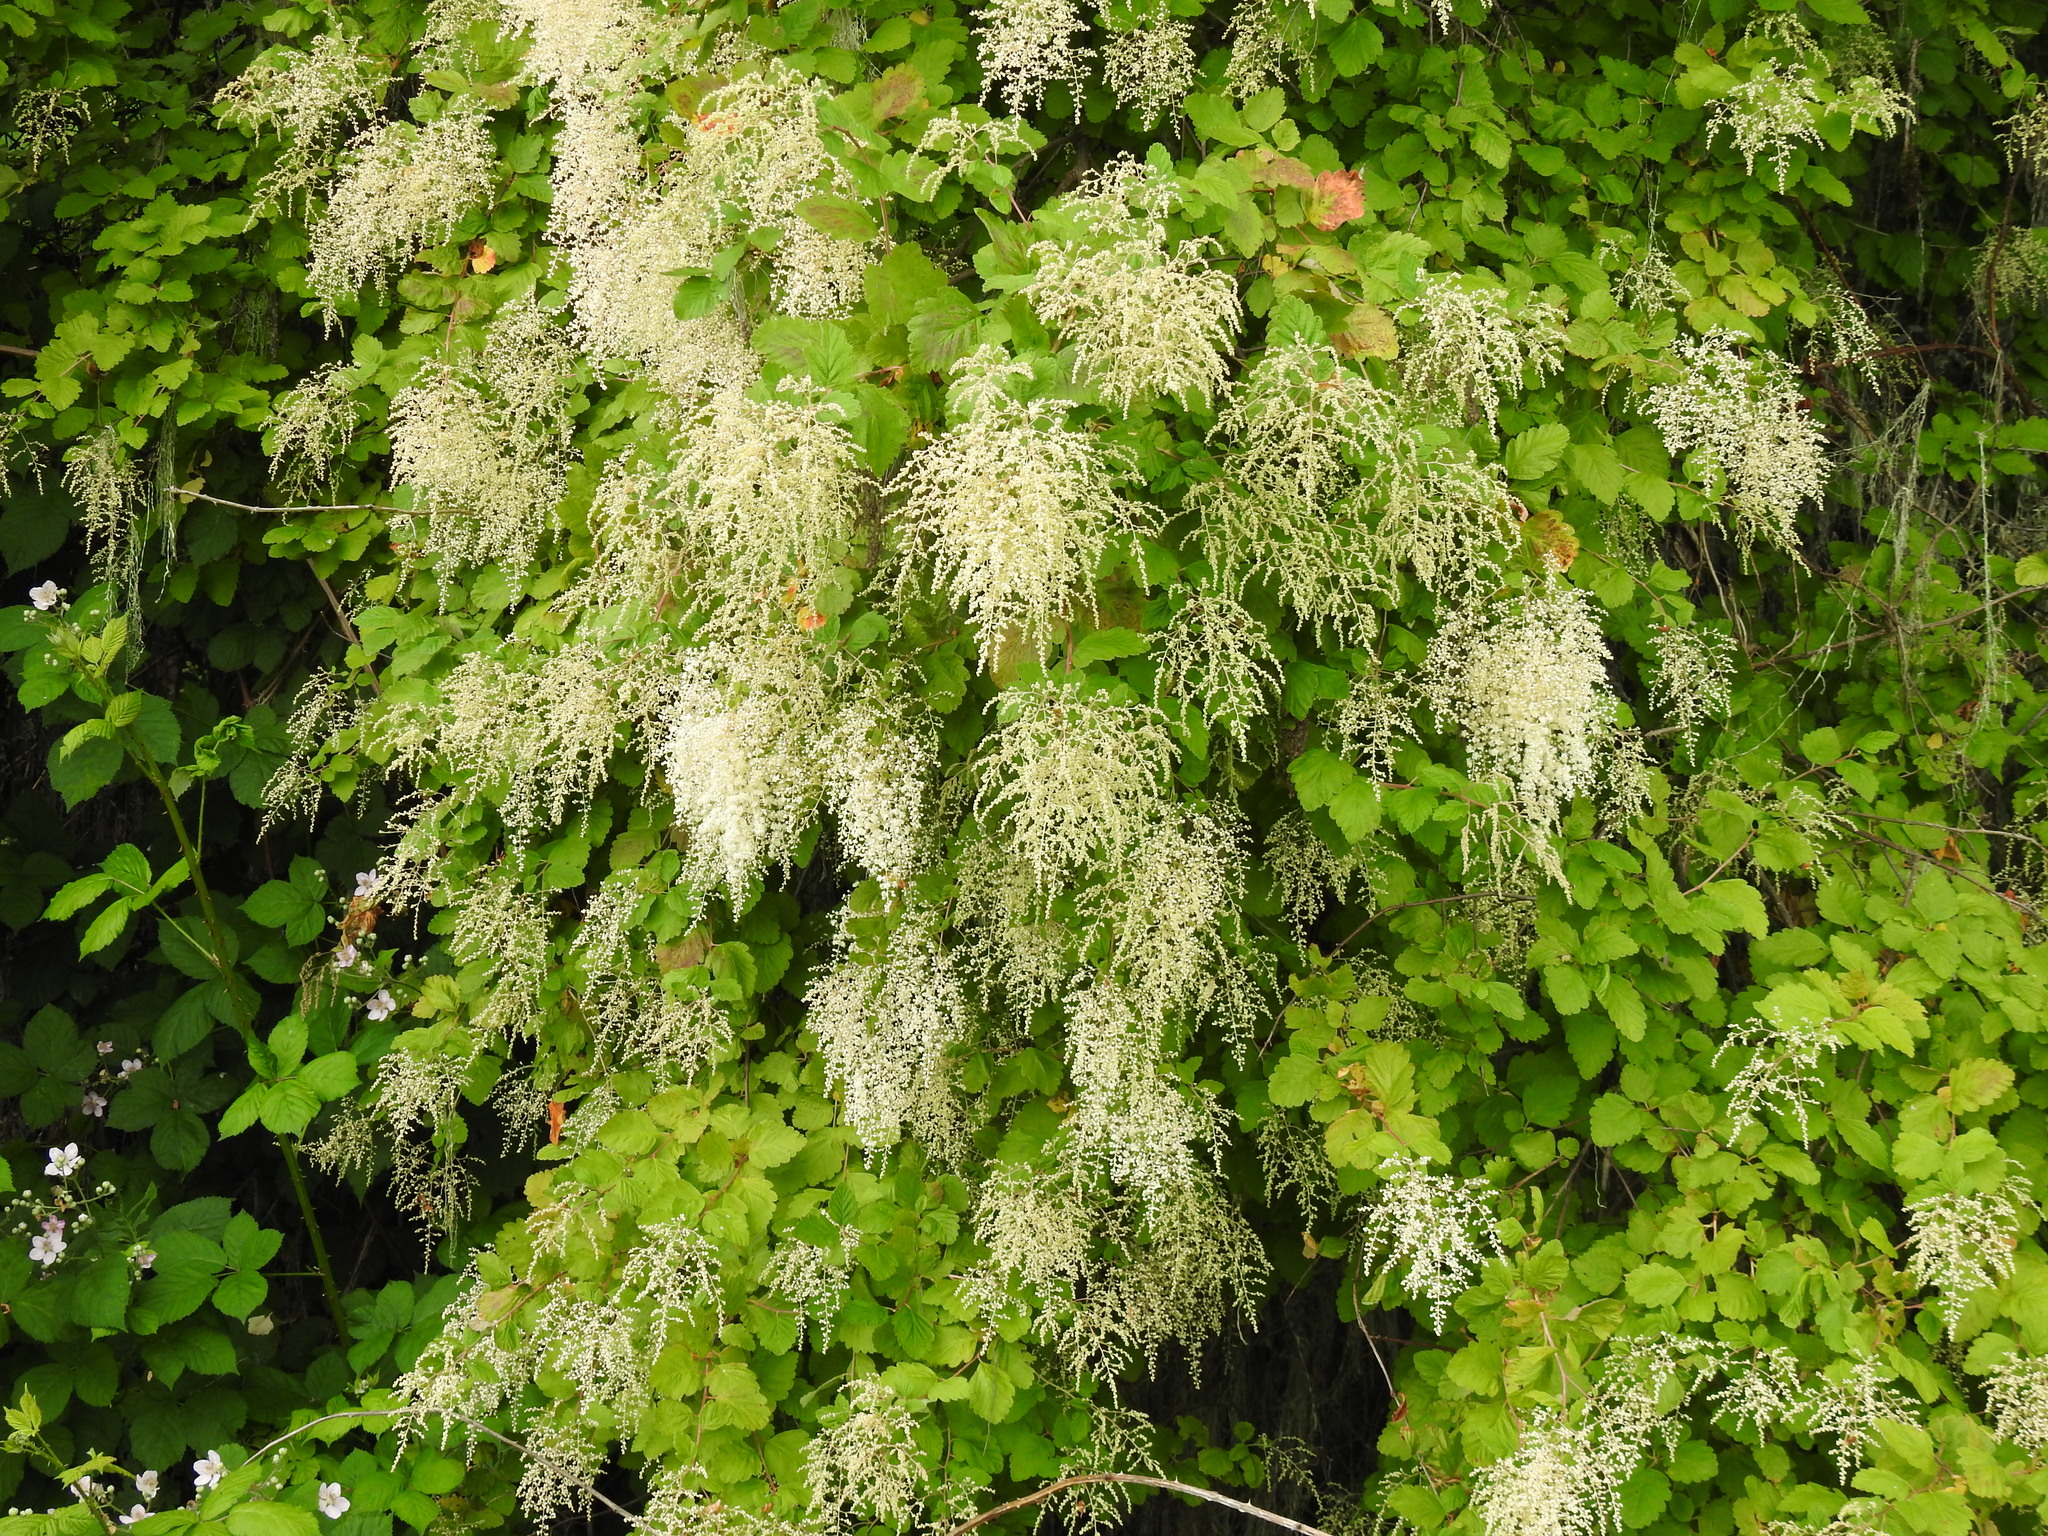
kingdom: Plantae
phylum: Tracheophyta
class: Magnoliopsida
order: Rosales
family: Rosaceae
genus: Holodiscus
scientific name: Holodiscus discolor
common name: Oceanspray
